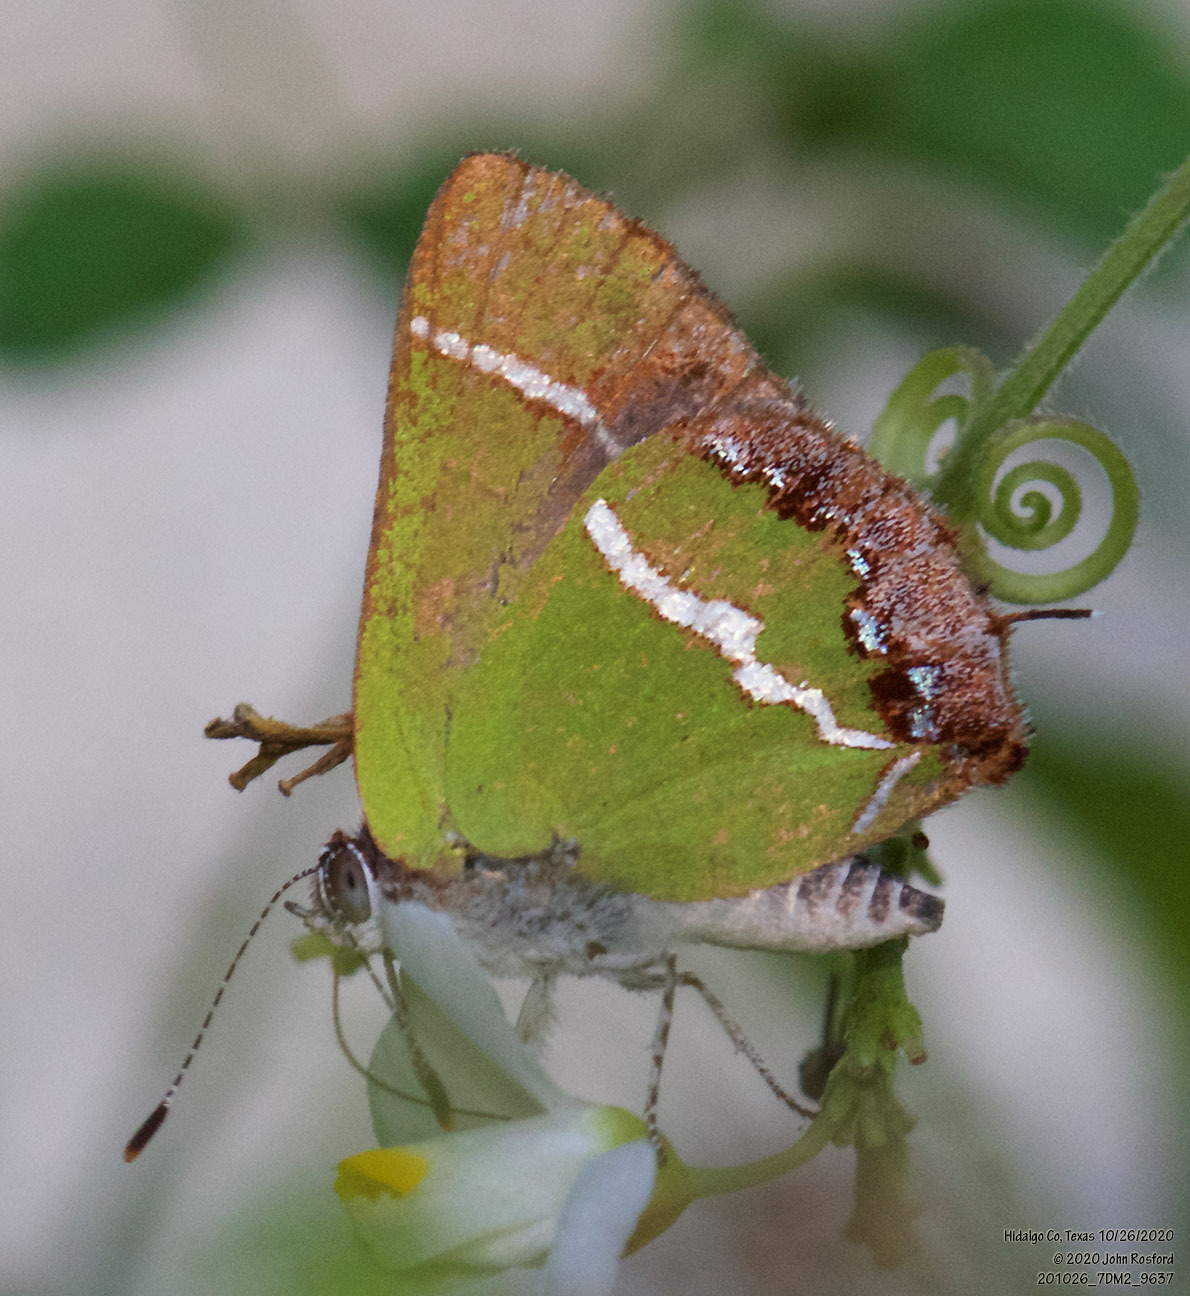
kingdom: Animalia
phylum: Arthropoda
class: Insecta
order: Lepidoptera
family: Lycaenidae
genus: Chlorostrymon
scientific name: Chlorostrymon simaethis
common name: Silver-banded hairstreak
